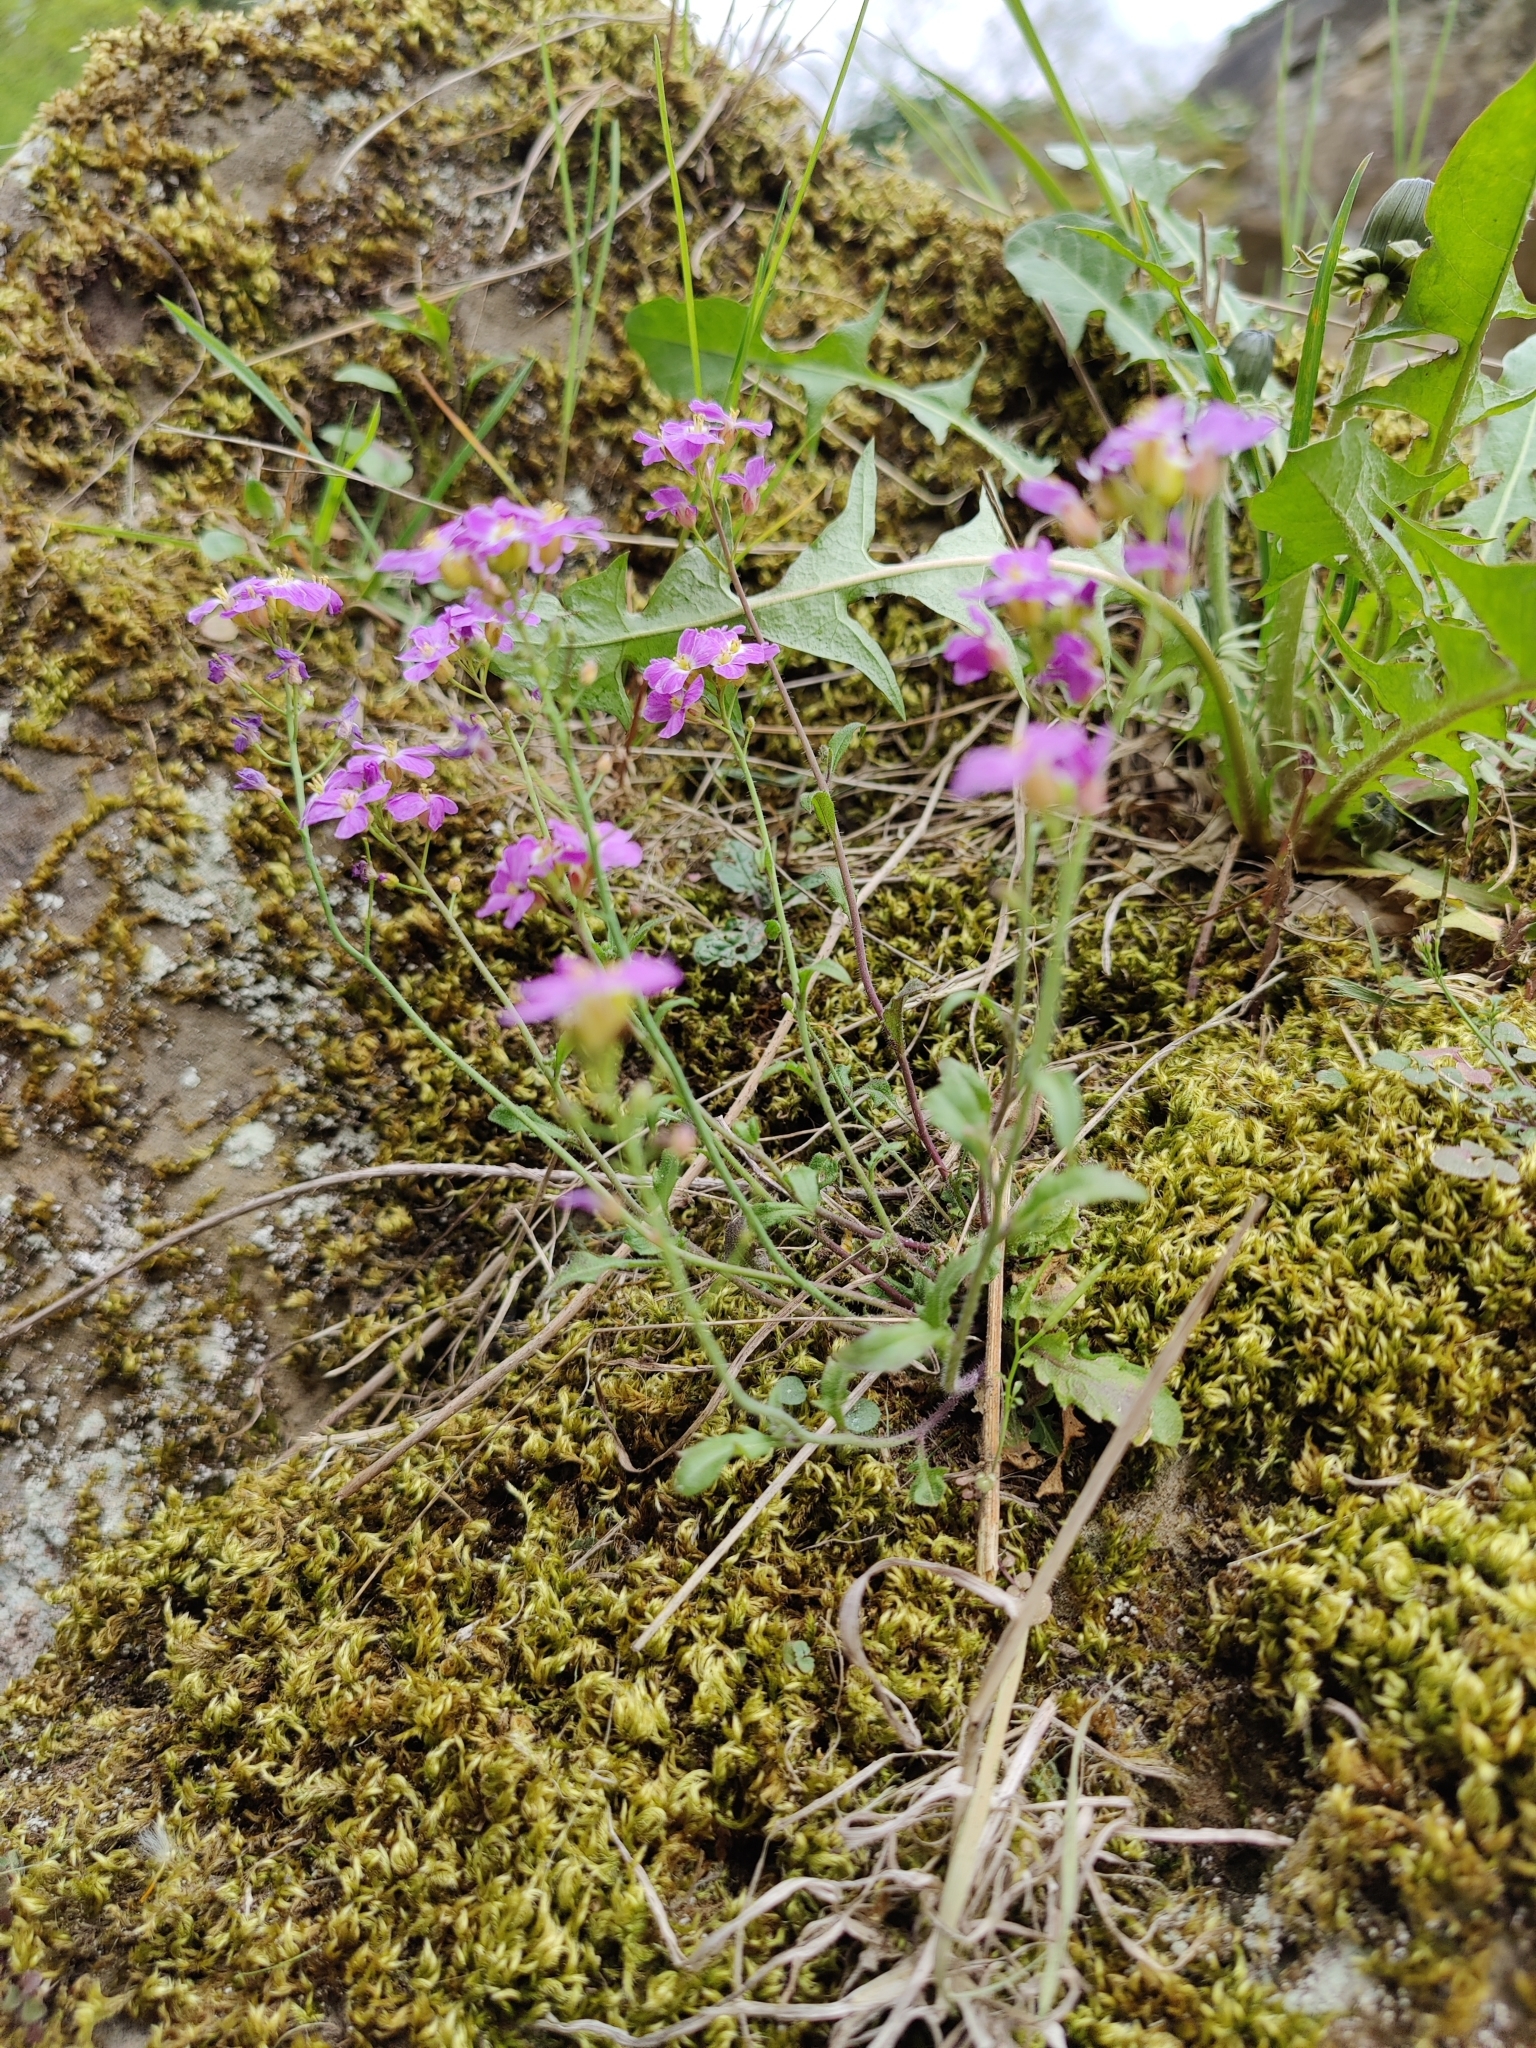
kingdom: Plantae
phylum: Tracheophyta
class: Magnoliopsida
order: Brassicales
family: Brassicaceae
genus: Arabidopsis
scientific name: Arabidopsis arenosa
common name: Sand rock-cress
